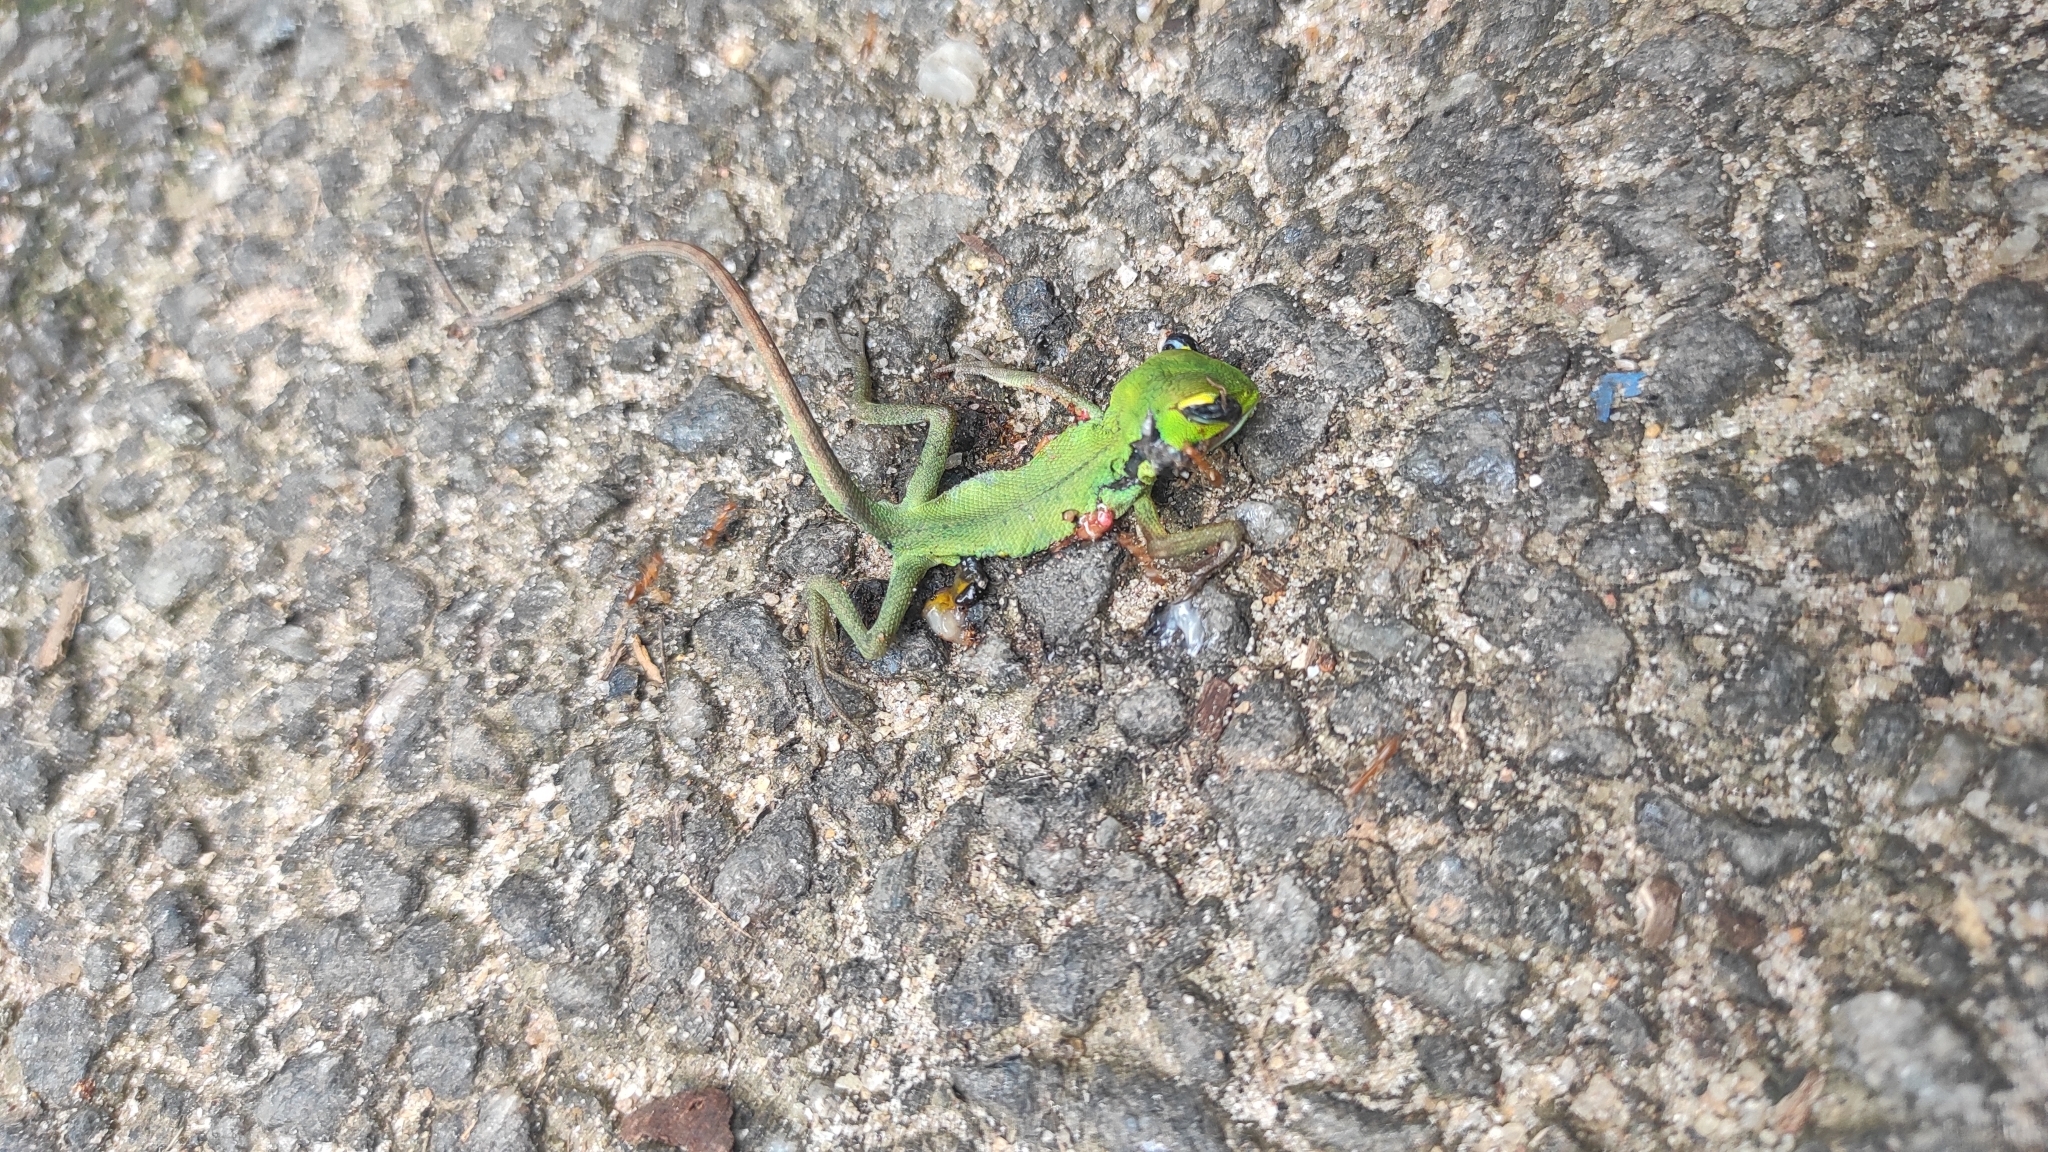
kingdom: Animalia
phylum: Chordata
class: Squamata
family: Agamidae
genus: Calotes
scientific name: Calotes calotes
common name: Common green forest lizard
